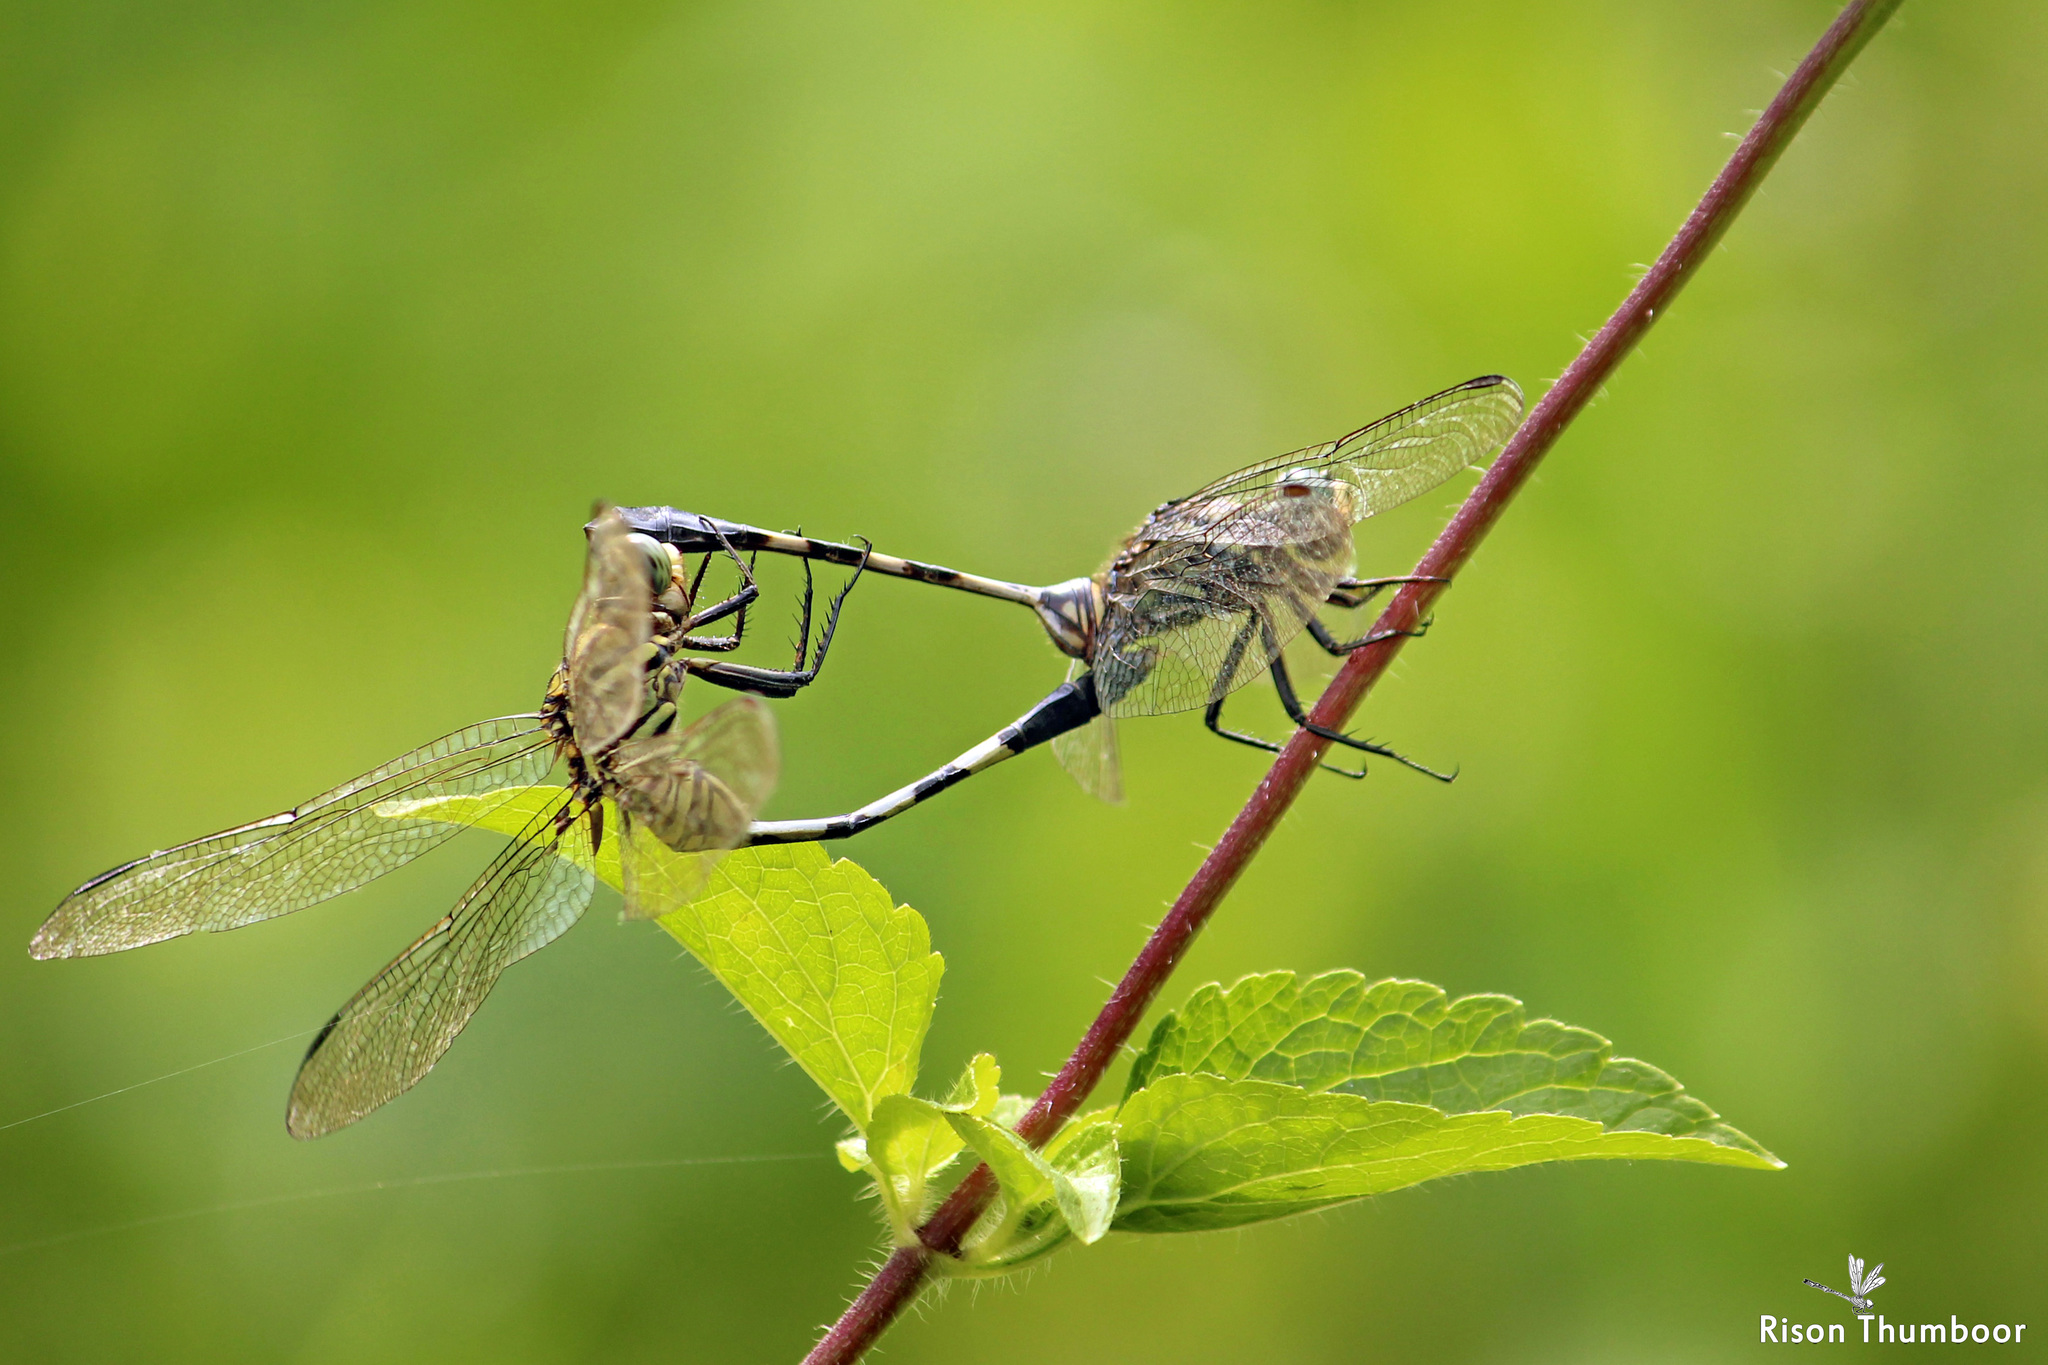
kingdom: Animalia
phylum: Arthropoda
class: Insecta
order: Odonata
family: Libellulidae
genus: Orthetrum
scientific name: Orthetrum sabina
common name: Slender skimmer
